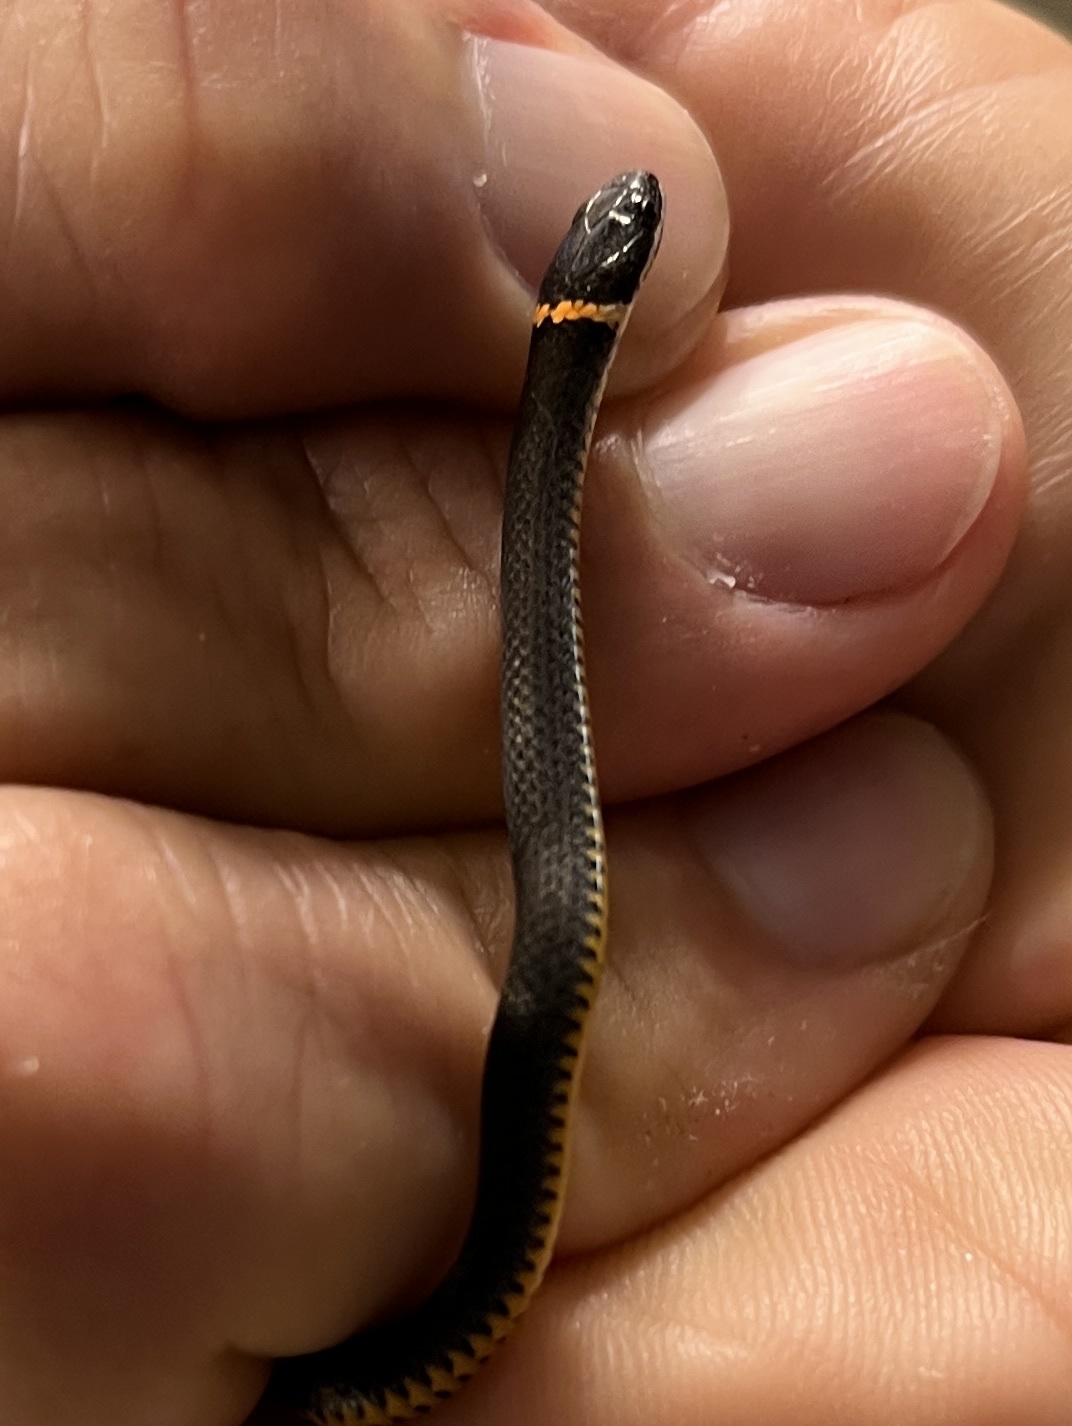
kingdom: Animalia
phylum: Chordata
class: Squamata
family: Colubridae
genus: Diadophis
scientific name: Diadophis punctatus
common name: Ringneck snake
